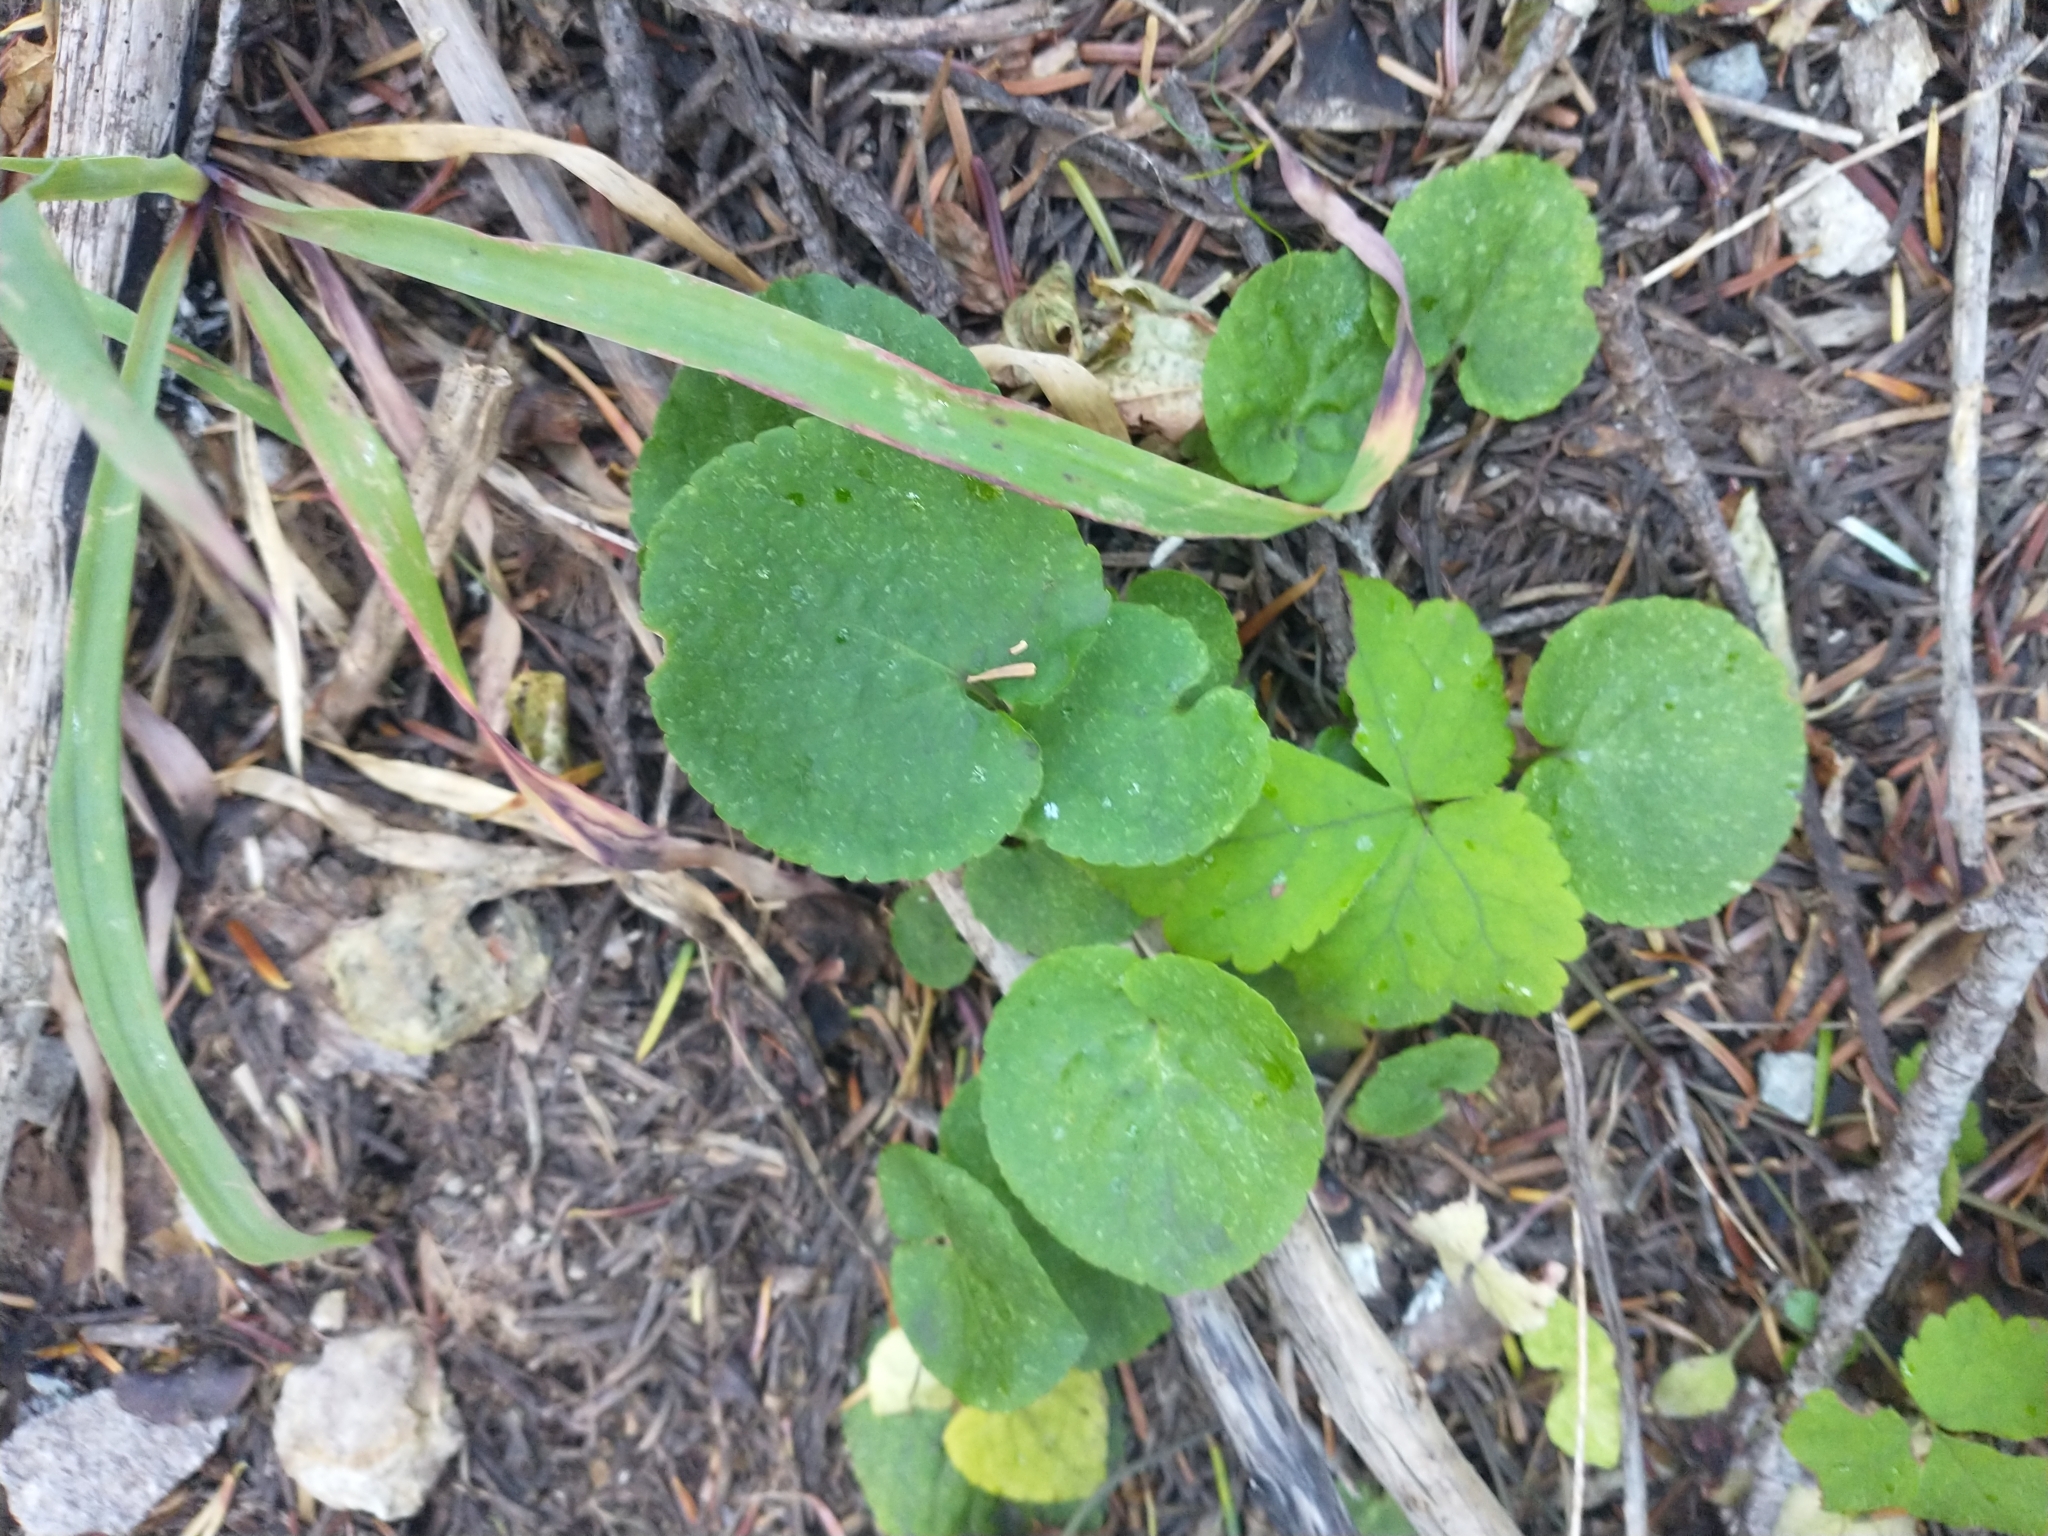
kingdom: Plantae
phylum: Tracheophyta
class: Magnoliopsida
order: Malpighiales
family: Violaceae
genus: Viola
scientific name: Viola orbiculata
